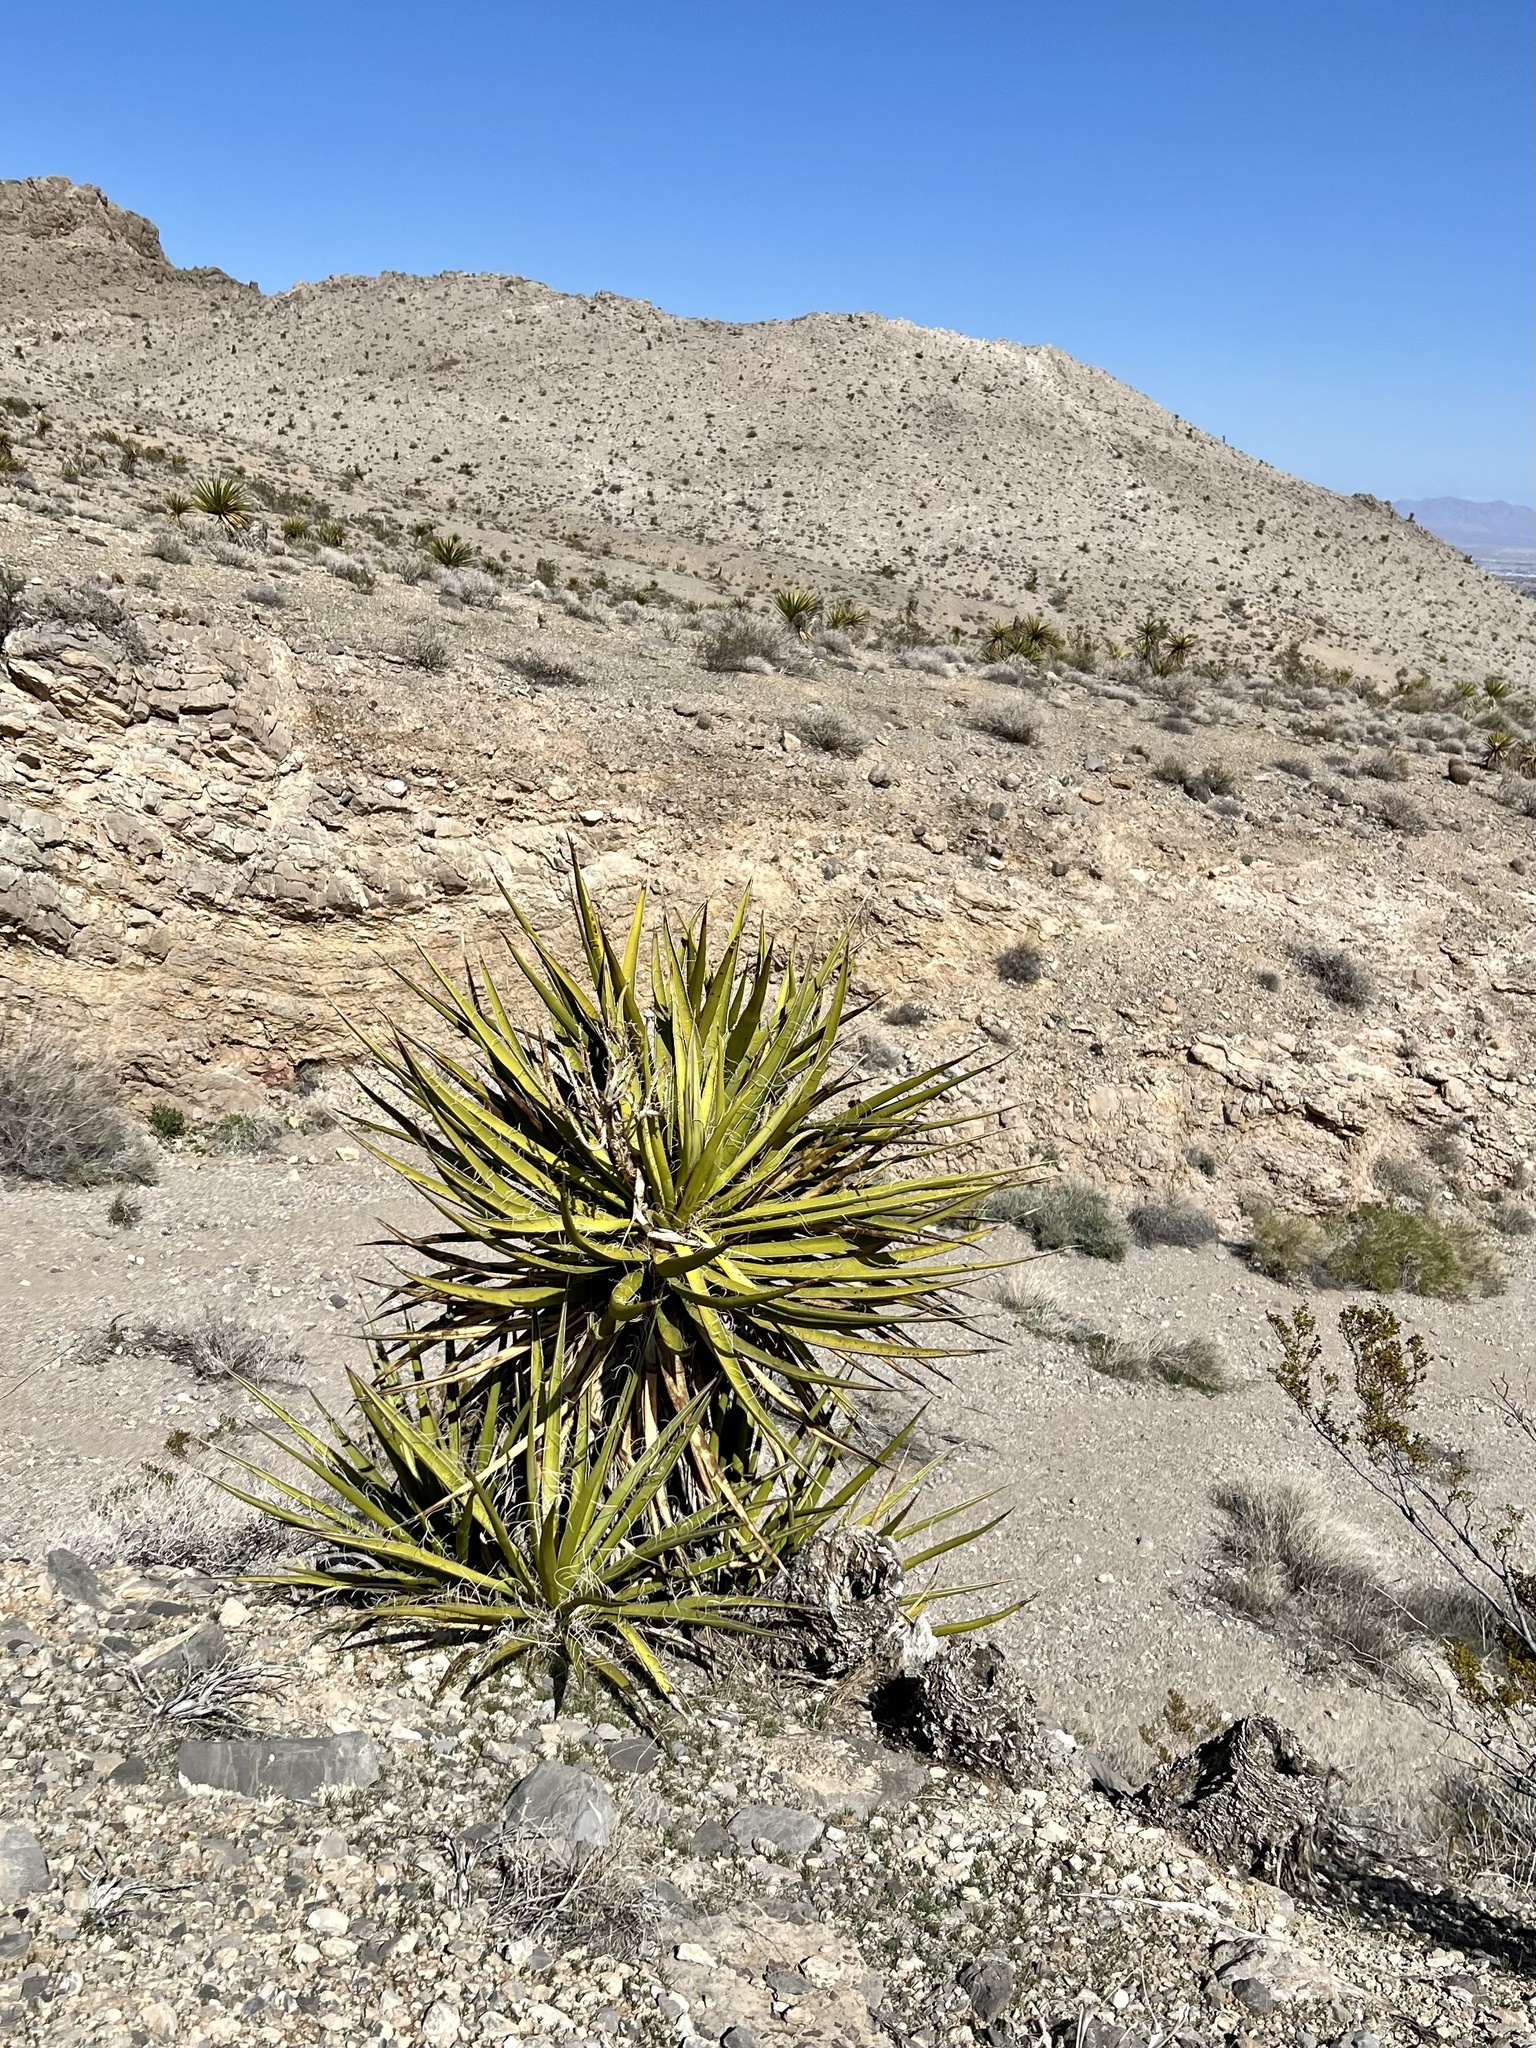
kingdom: Plantae
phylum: Tracheophyta
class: Liliopsida
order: Asparagales
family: Asparagaceae
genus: Yucca
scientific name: Yucca schidigera
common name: Mojave yucca
